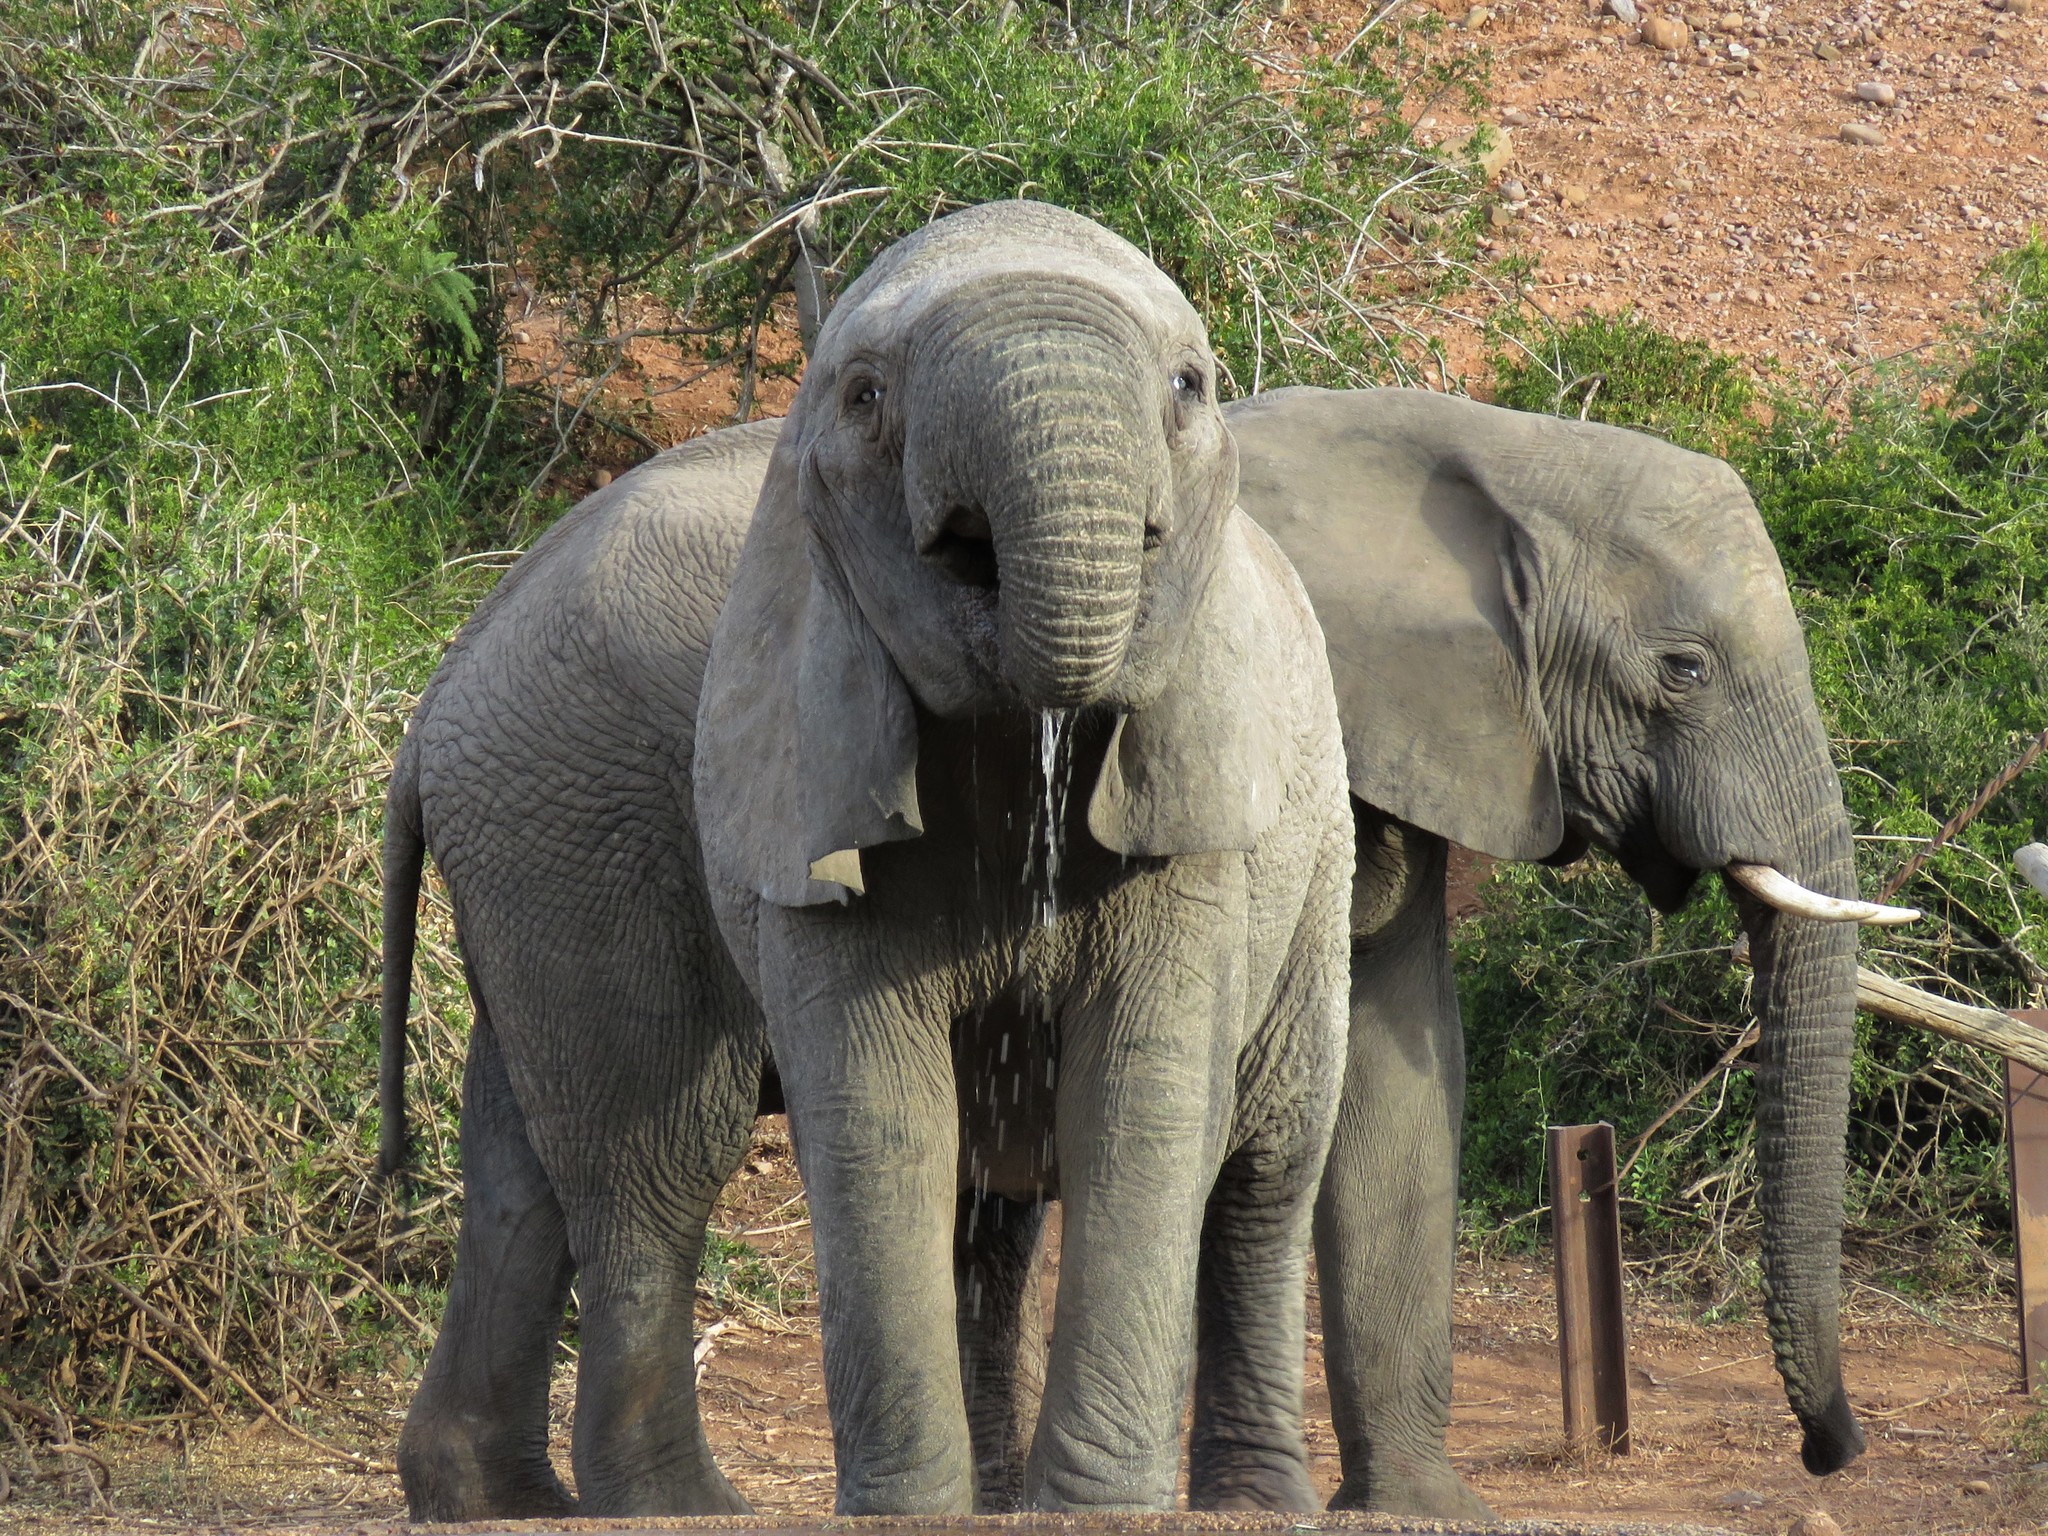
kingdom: Animalia
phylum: Chordata
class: Mammalia
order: Proboscidea
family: Elephantidae
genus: Loxodonta
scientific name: Loxodonta africana
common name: African elephant
